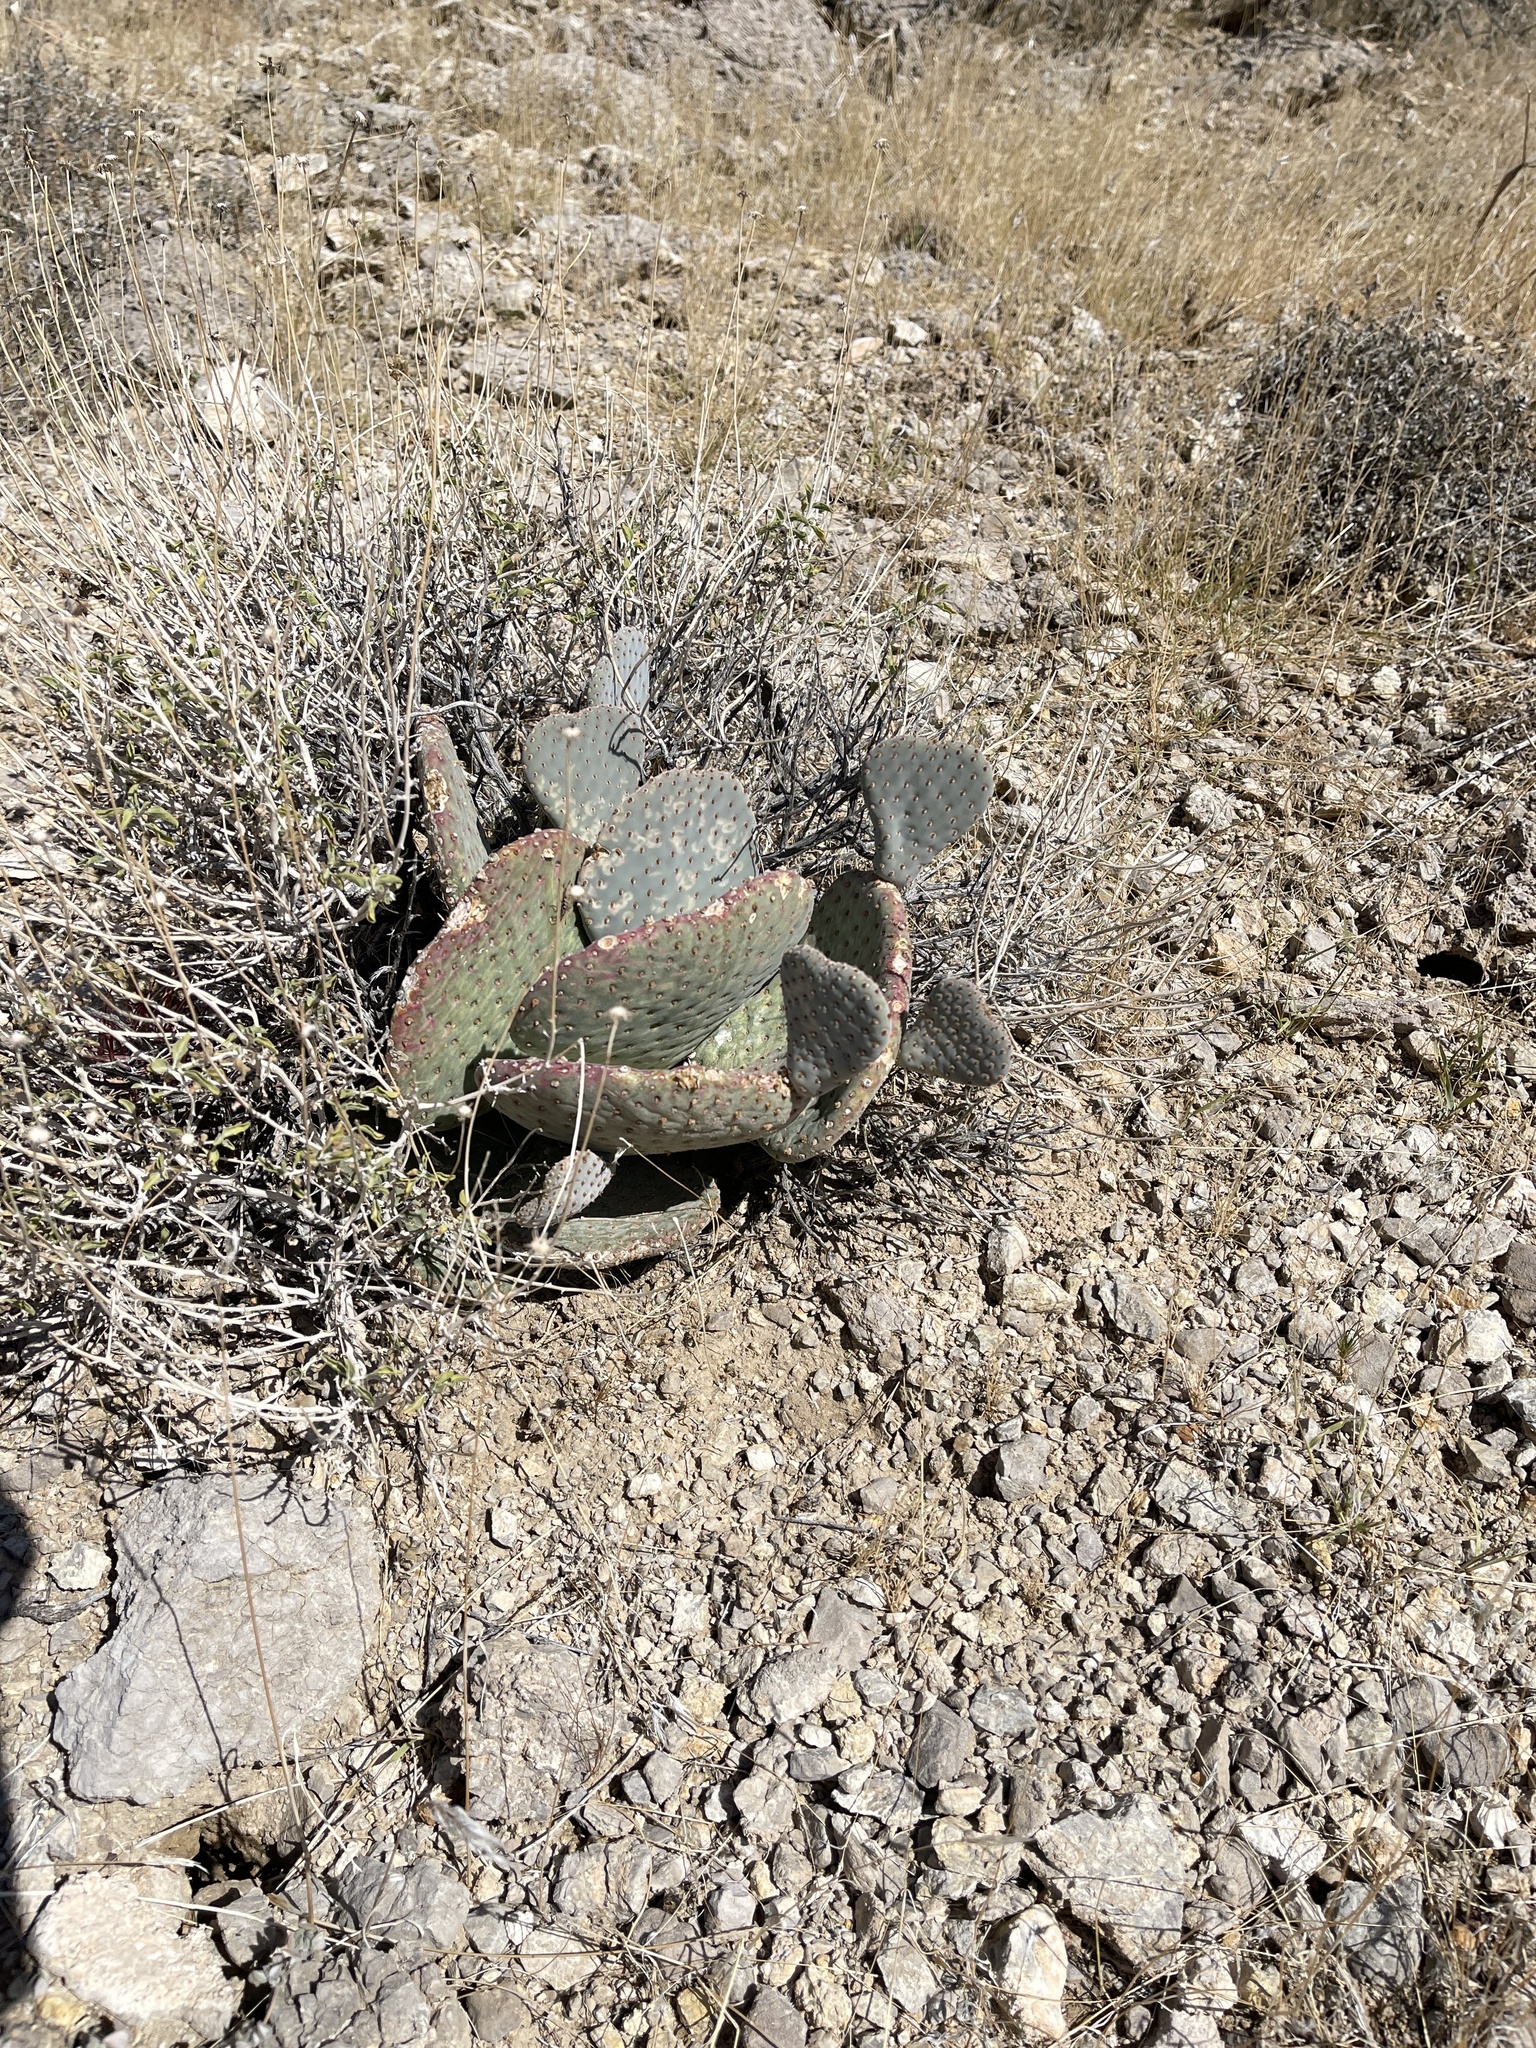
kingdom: Plantae
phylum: Tracheophyta
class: Magnoliopsida
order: Caryophyllales
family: Cactaceae
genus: Opuntia
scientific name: Opuntia basilaris
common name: Beavertail prickly-pear
